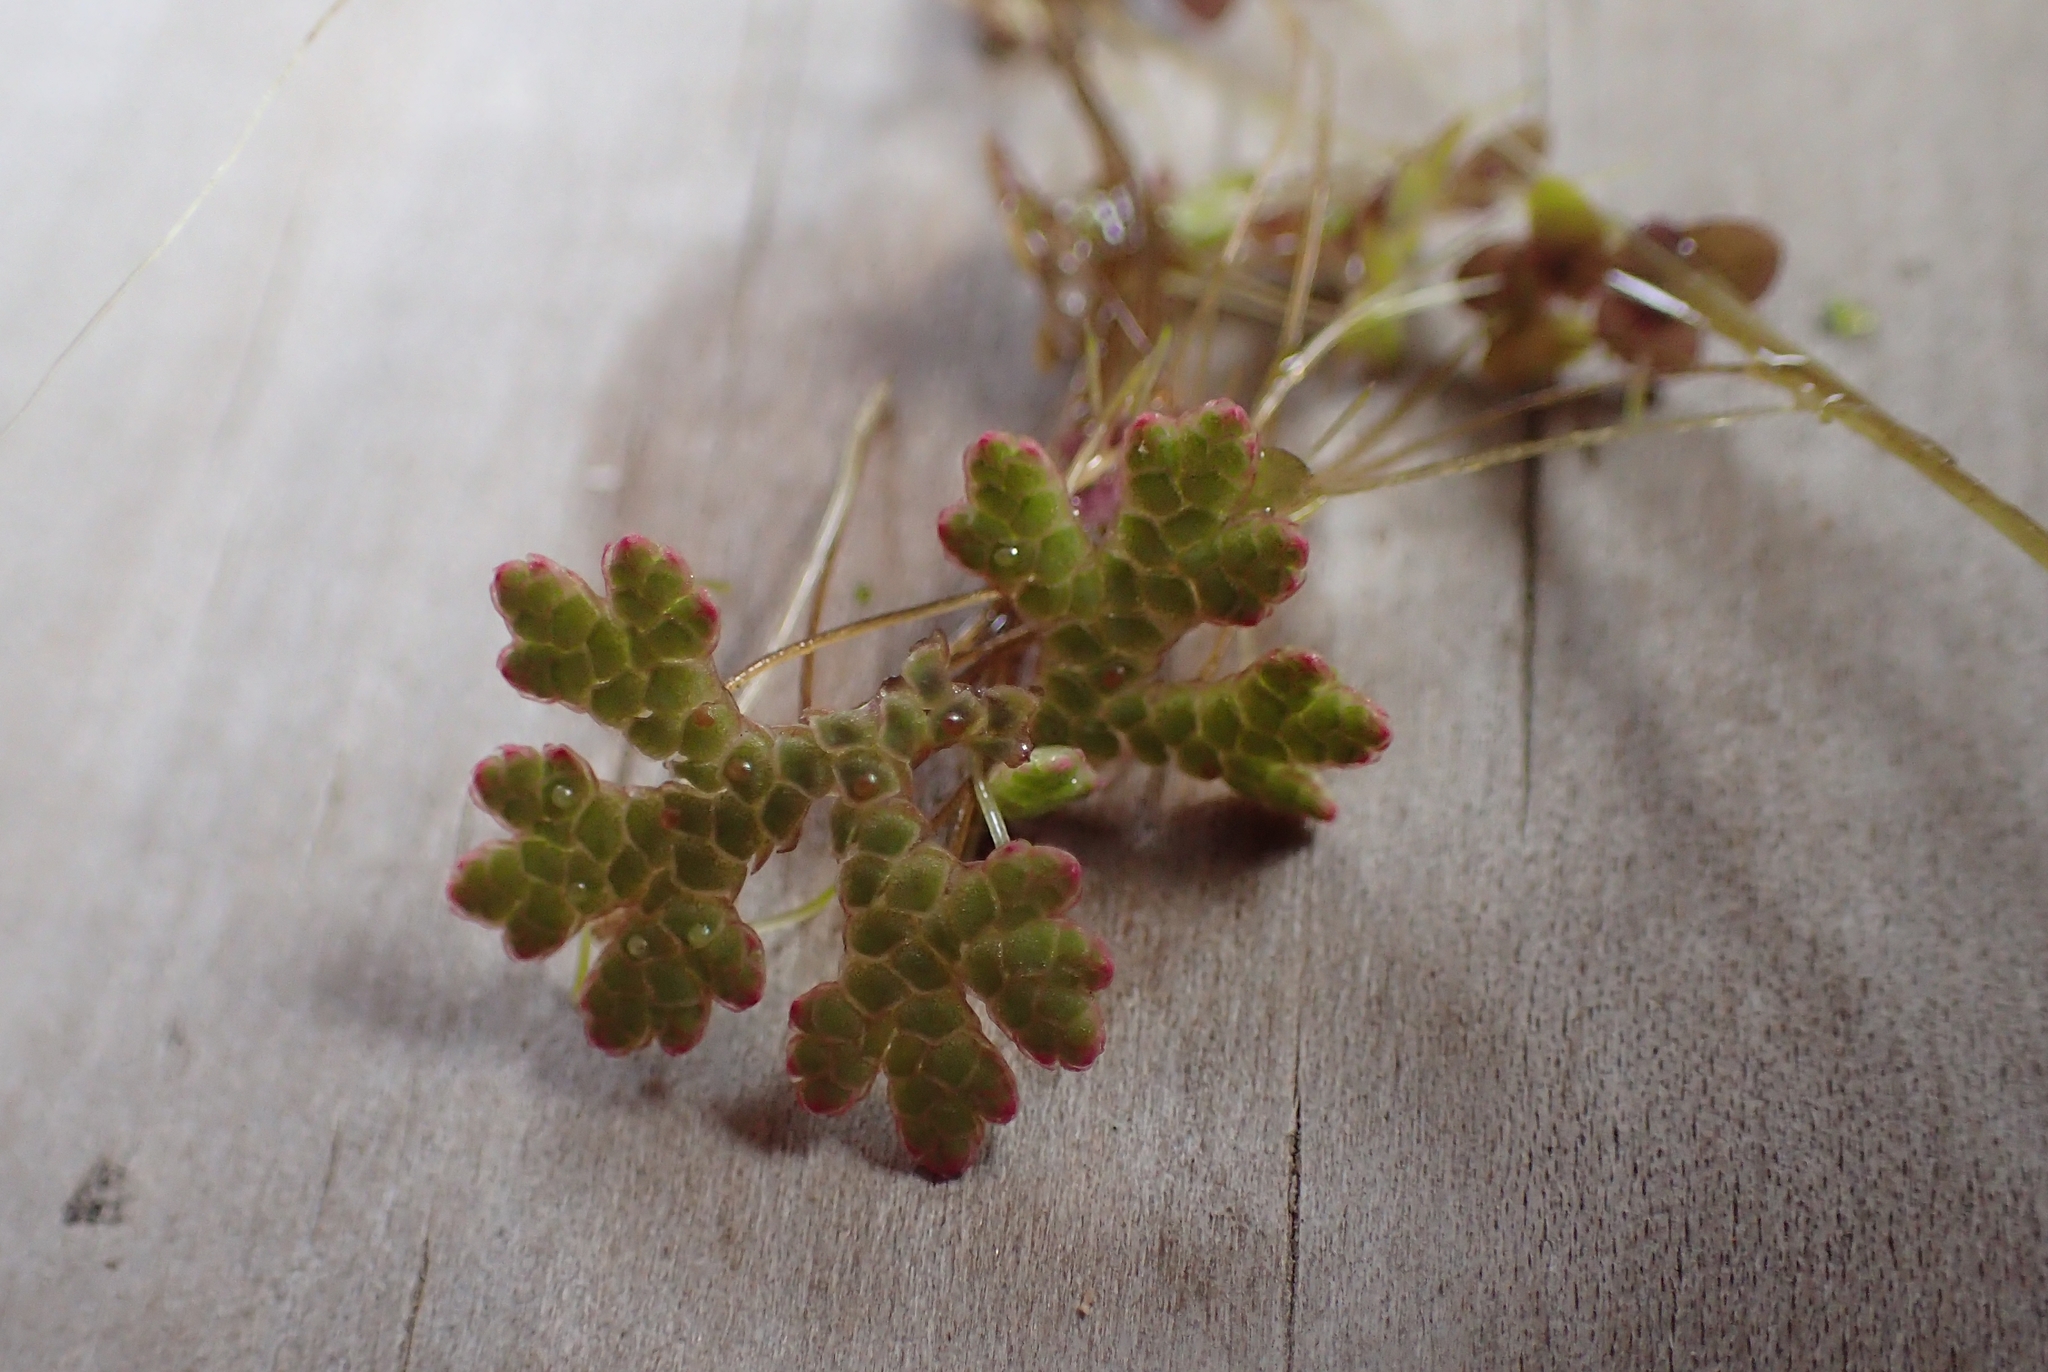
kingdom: Plantae
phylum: Tracheophyta
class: Polypodiopsida
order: Salviniales
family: Salviniaceae
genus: Azolla
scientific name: Azolla rubra
